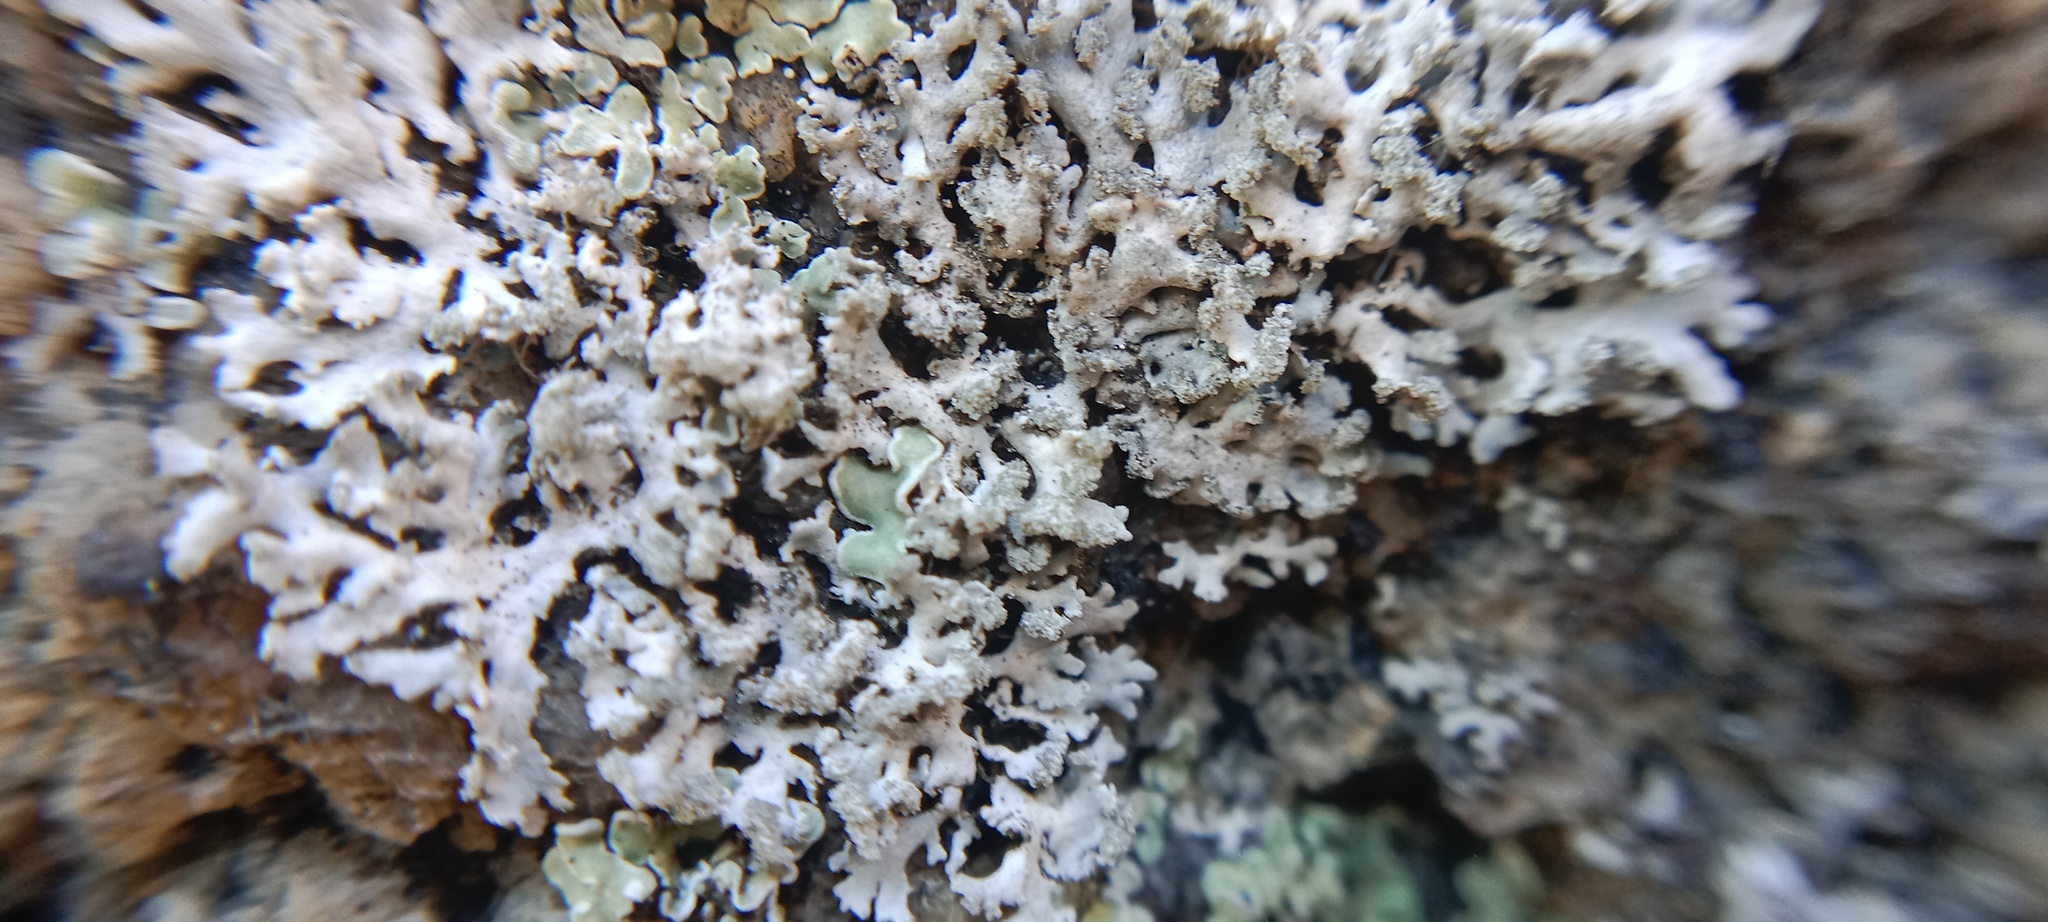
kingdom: Fungi
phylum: Ascomycota
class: Lecanoromycetes
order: Caliciales
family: Physciaceae
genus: Physcia
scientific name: Physcia dimidiata
